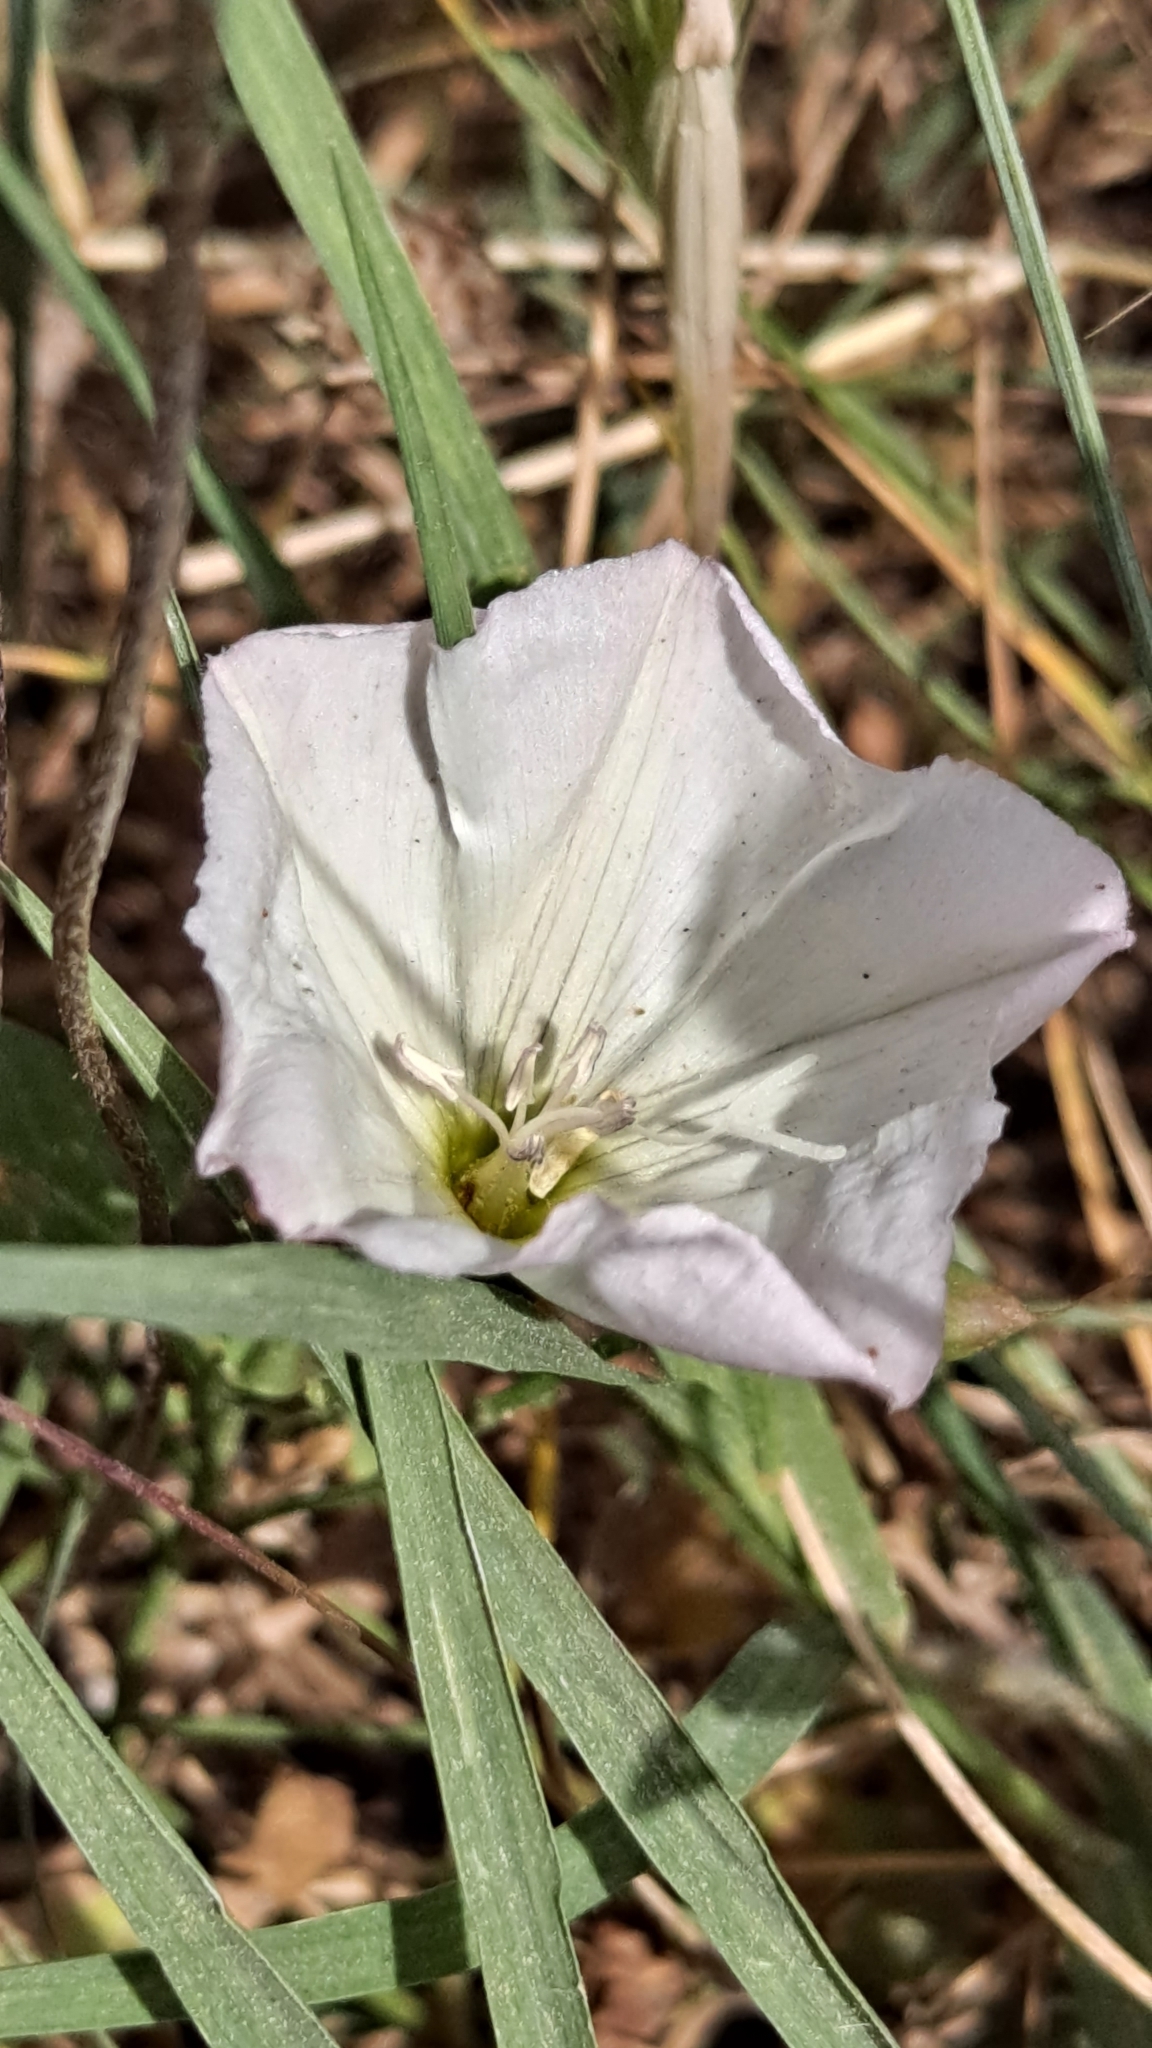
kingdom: Plantae
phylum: Tracheophyta
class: Magnoliopsida
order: Solanales
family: Convolvulaceae
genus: Convolvulus
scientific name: Convolvulus arvensis
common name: Field bindweed
